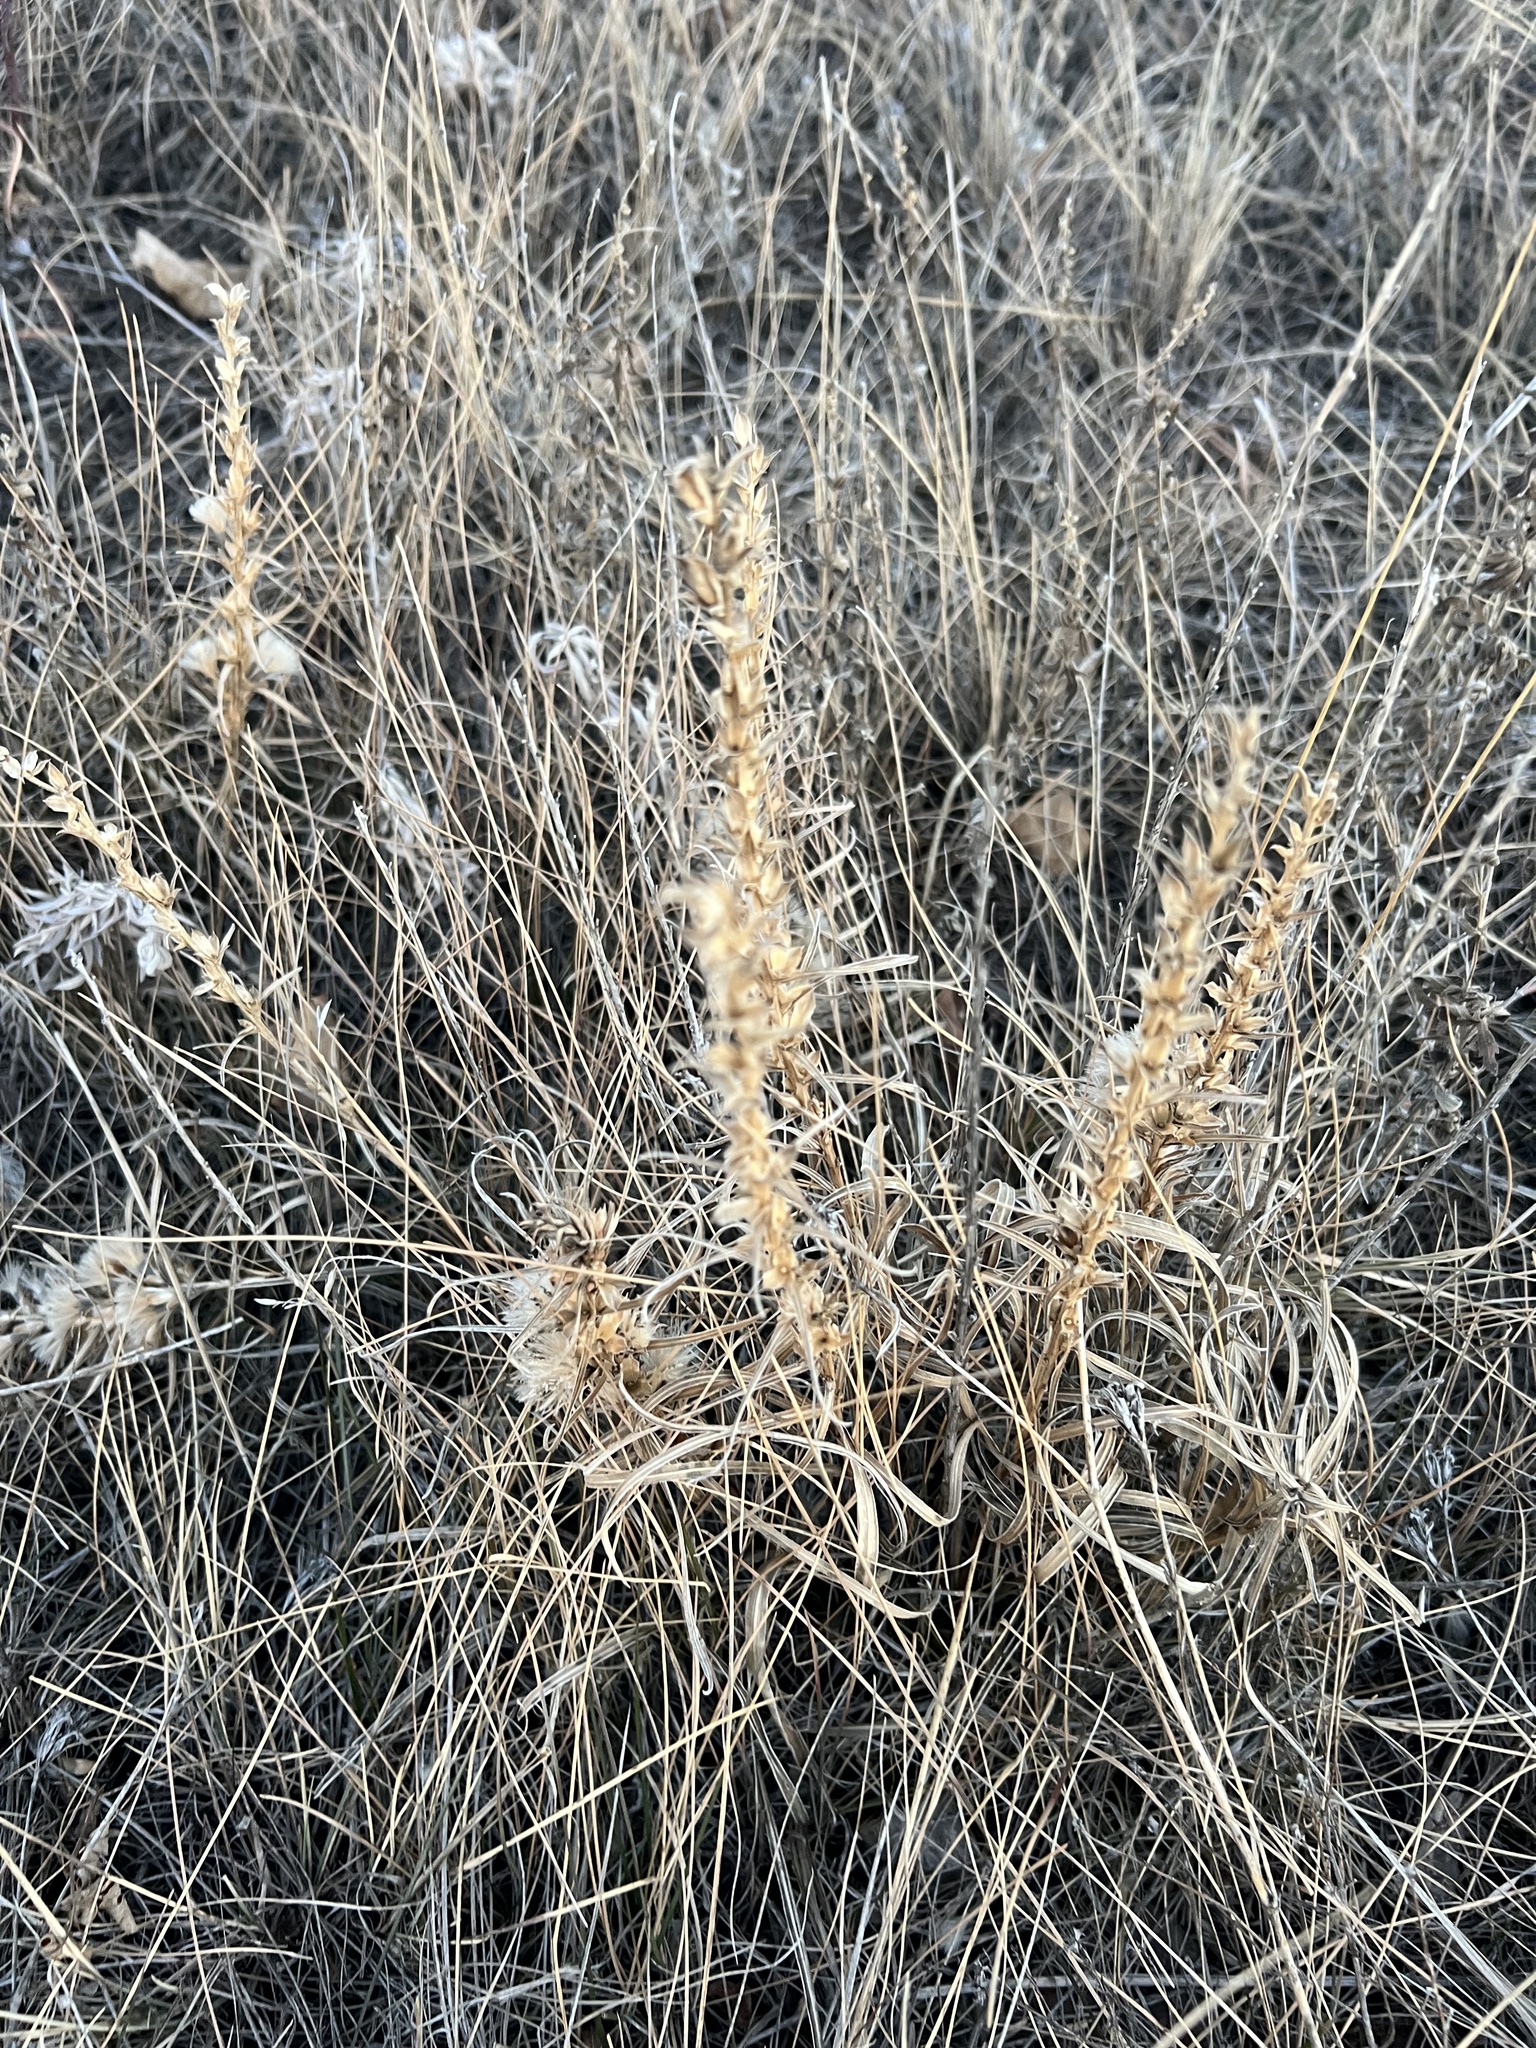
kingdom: Plantae
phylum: Tracheophyta
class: Magnoliopsida
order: Asterales
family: Asteraceae
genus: Liatris
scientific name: Liatris punctata
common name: Dotted gayfeather
